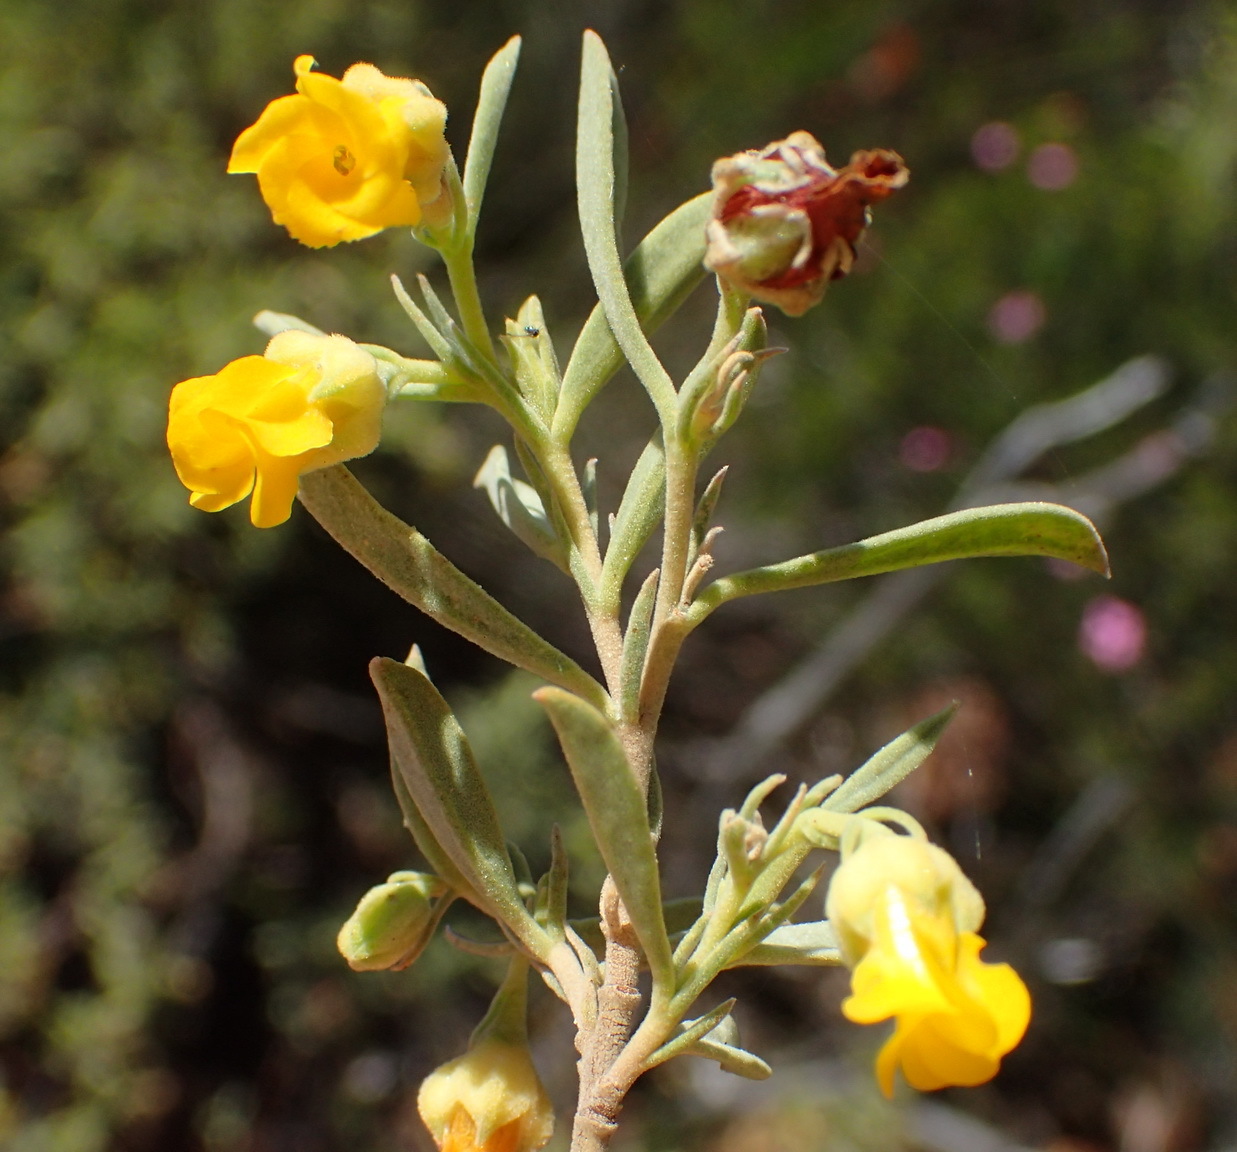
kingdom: Plantae
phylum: Tracheophyta
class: Magnoliopsida
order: Malvales
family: Malvaceae
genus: Hermannia
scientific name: Hermannia odorata
